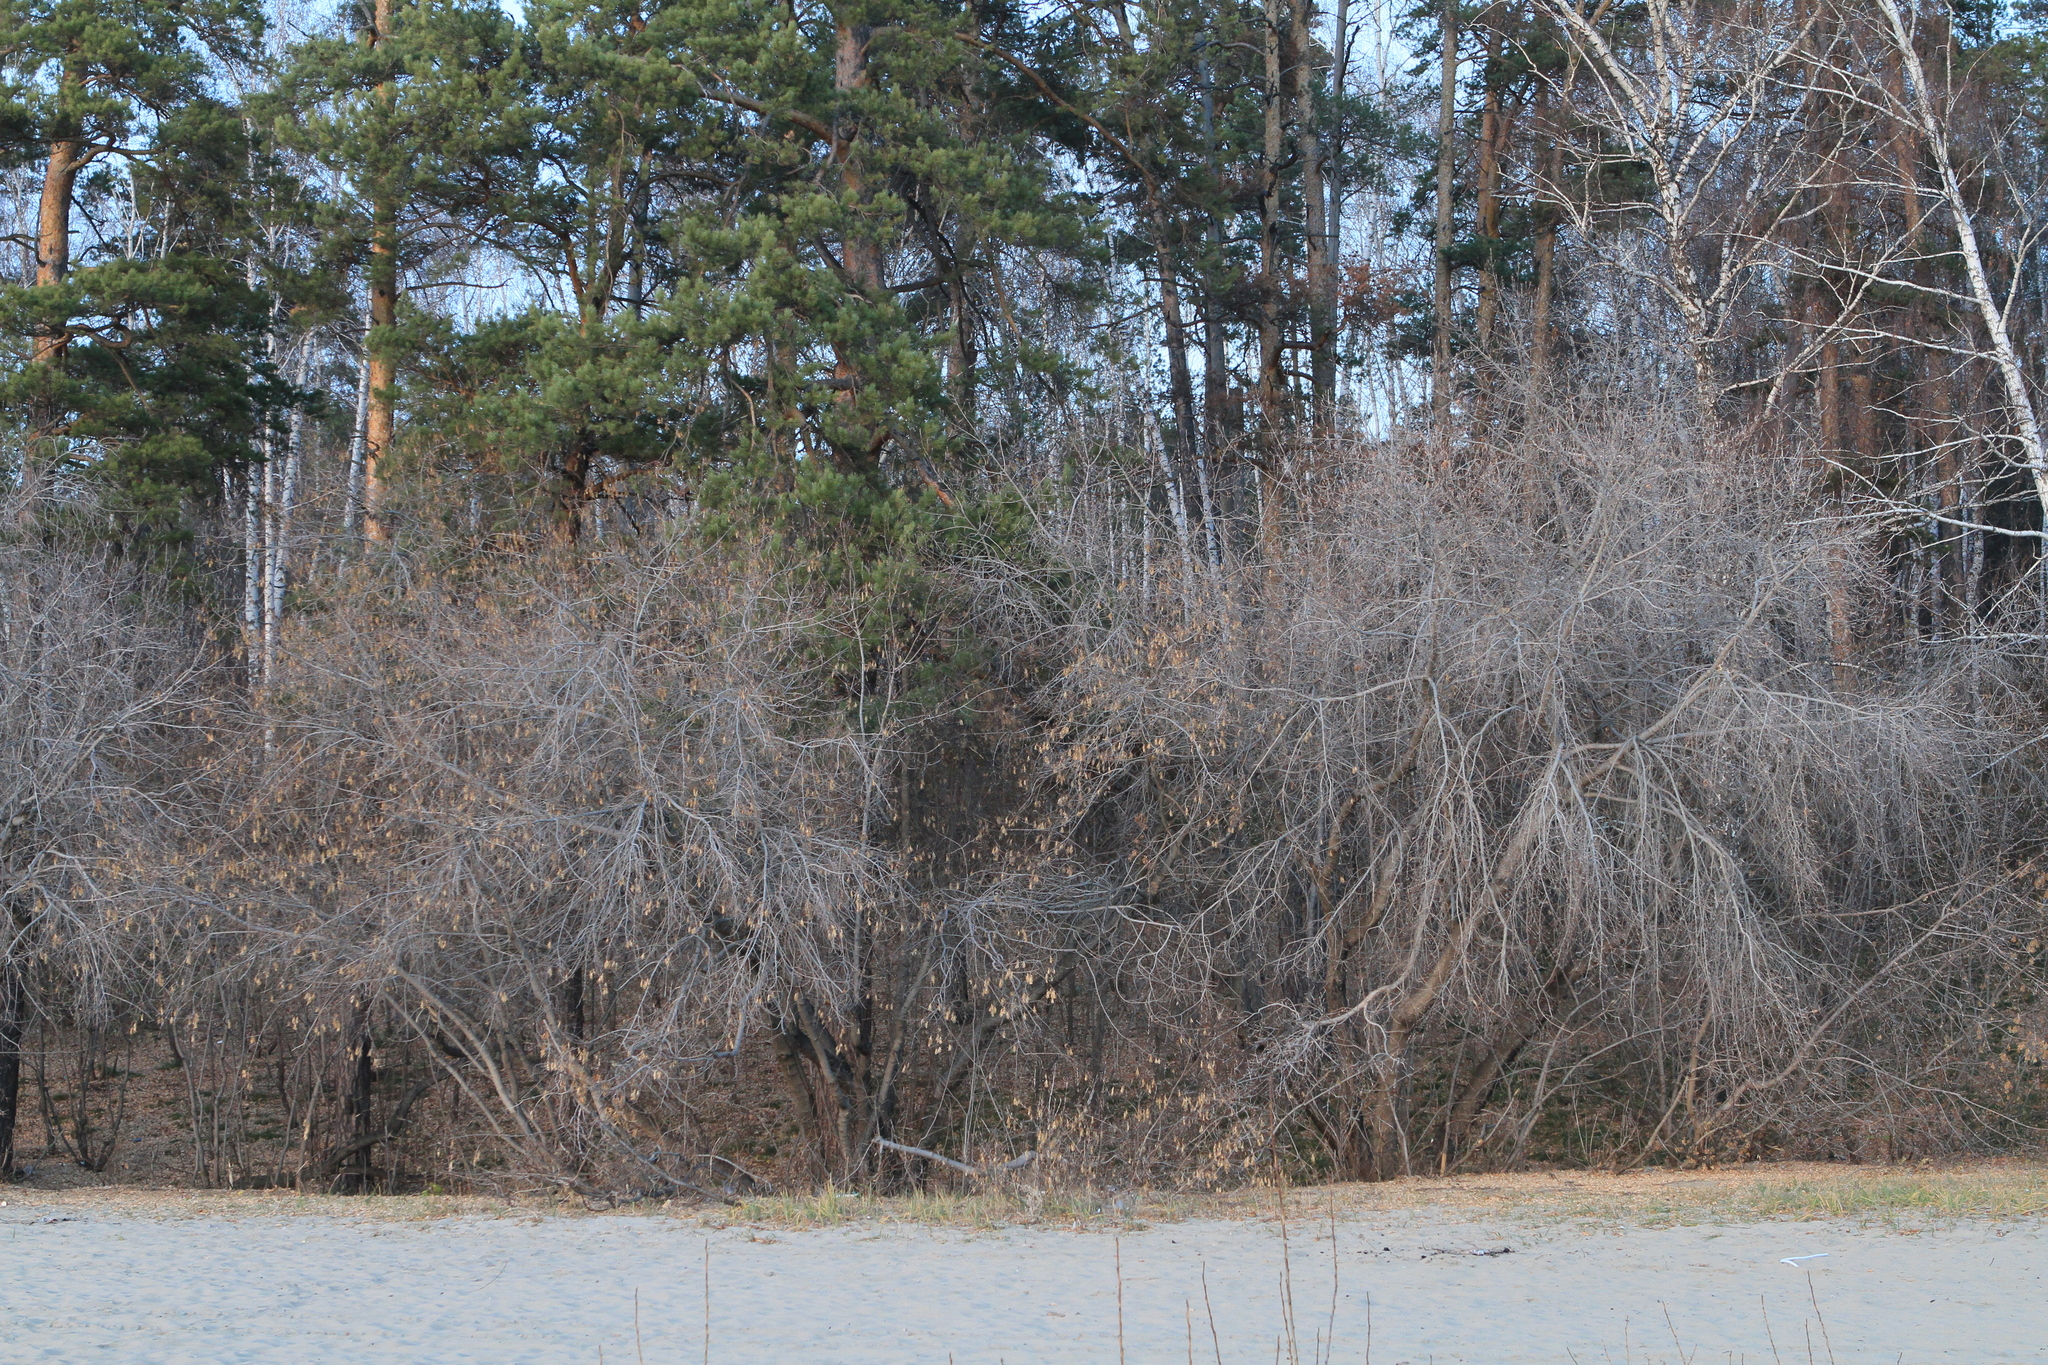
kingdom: Plantae
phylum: Tracheophyta
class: Magnoliopsida
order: Sapindales
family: Sapindaceae
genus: Acer
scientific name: Acer negundo
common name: Ashleaf maple
